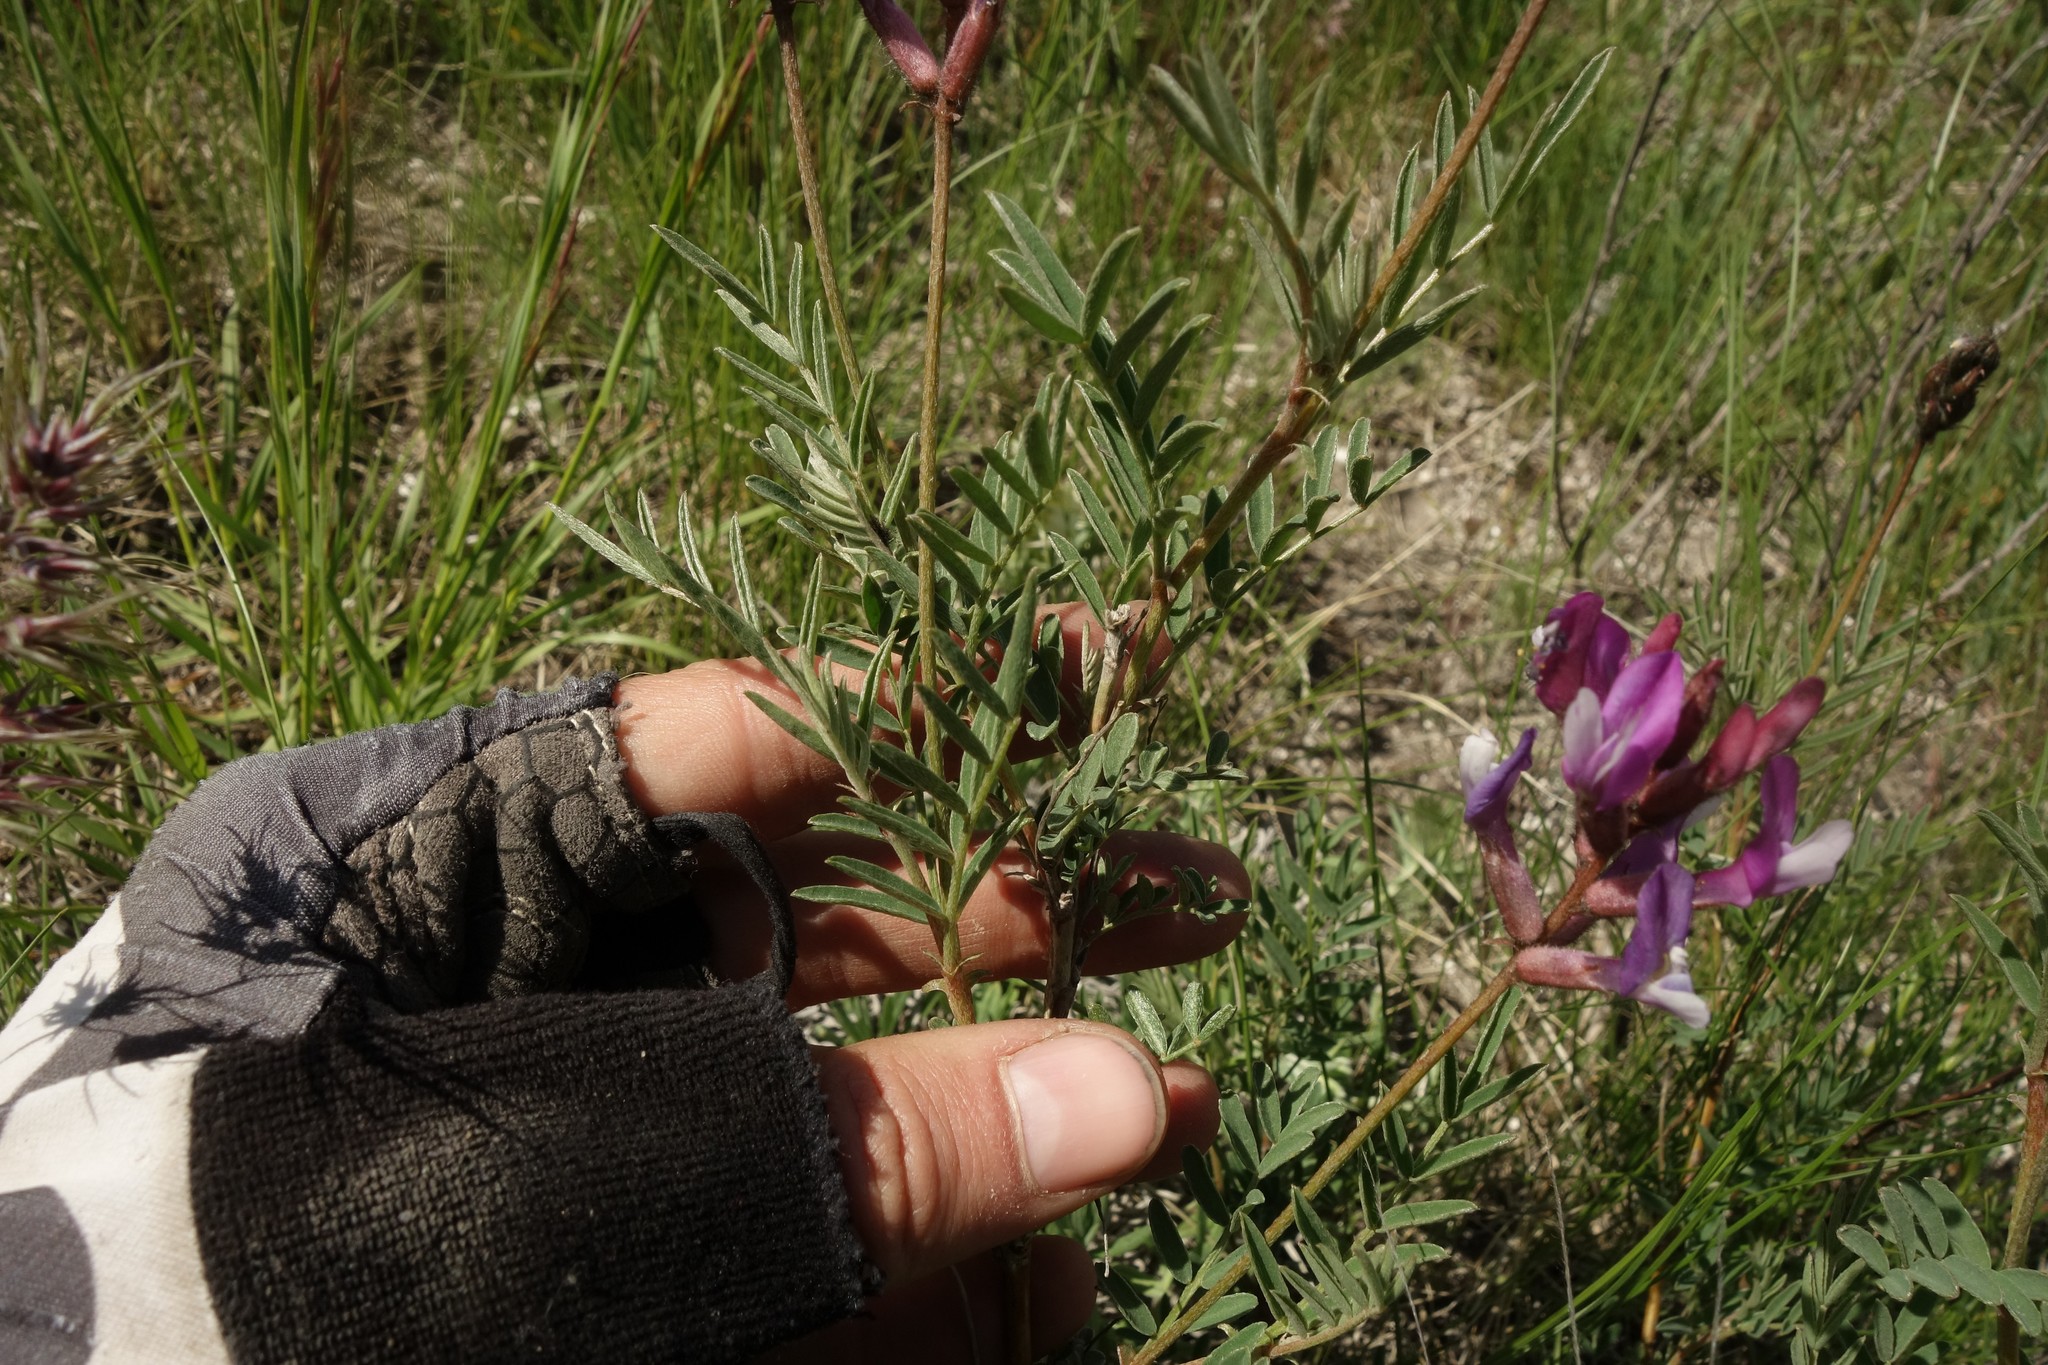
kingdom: Plantae
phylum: Tracheophyta
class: Magnoliopsida
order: Fabales
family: Fabaceae
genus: Astragalus
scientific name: Astragalus brachylobus
